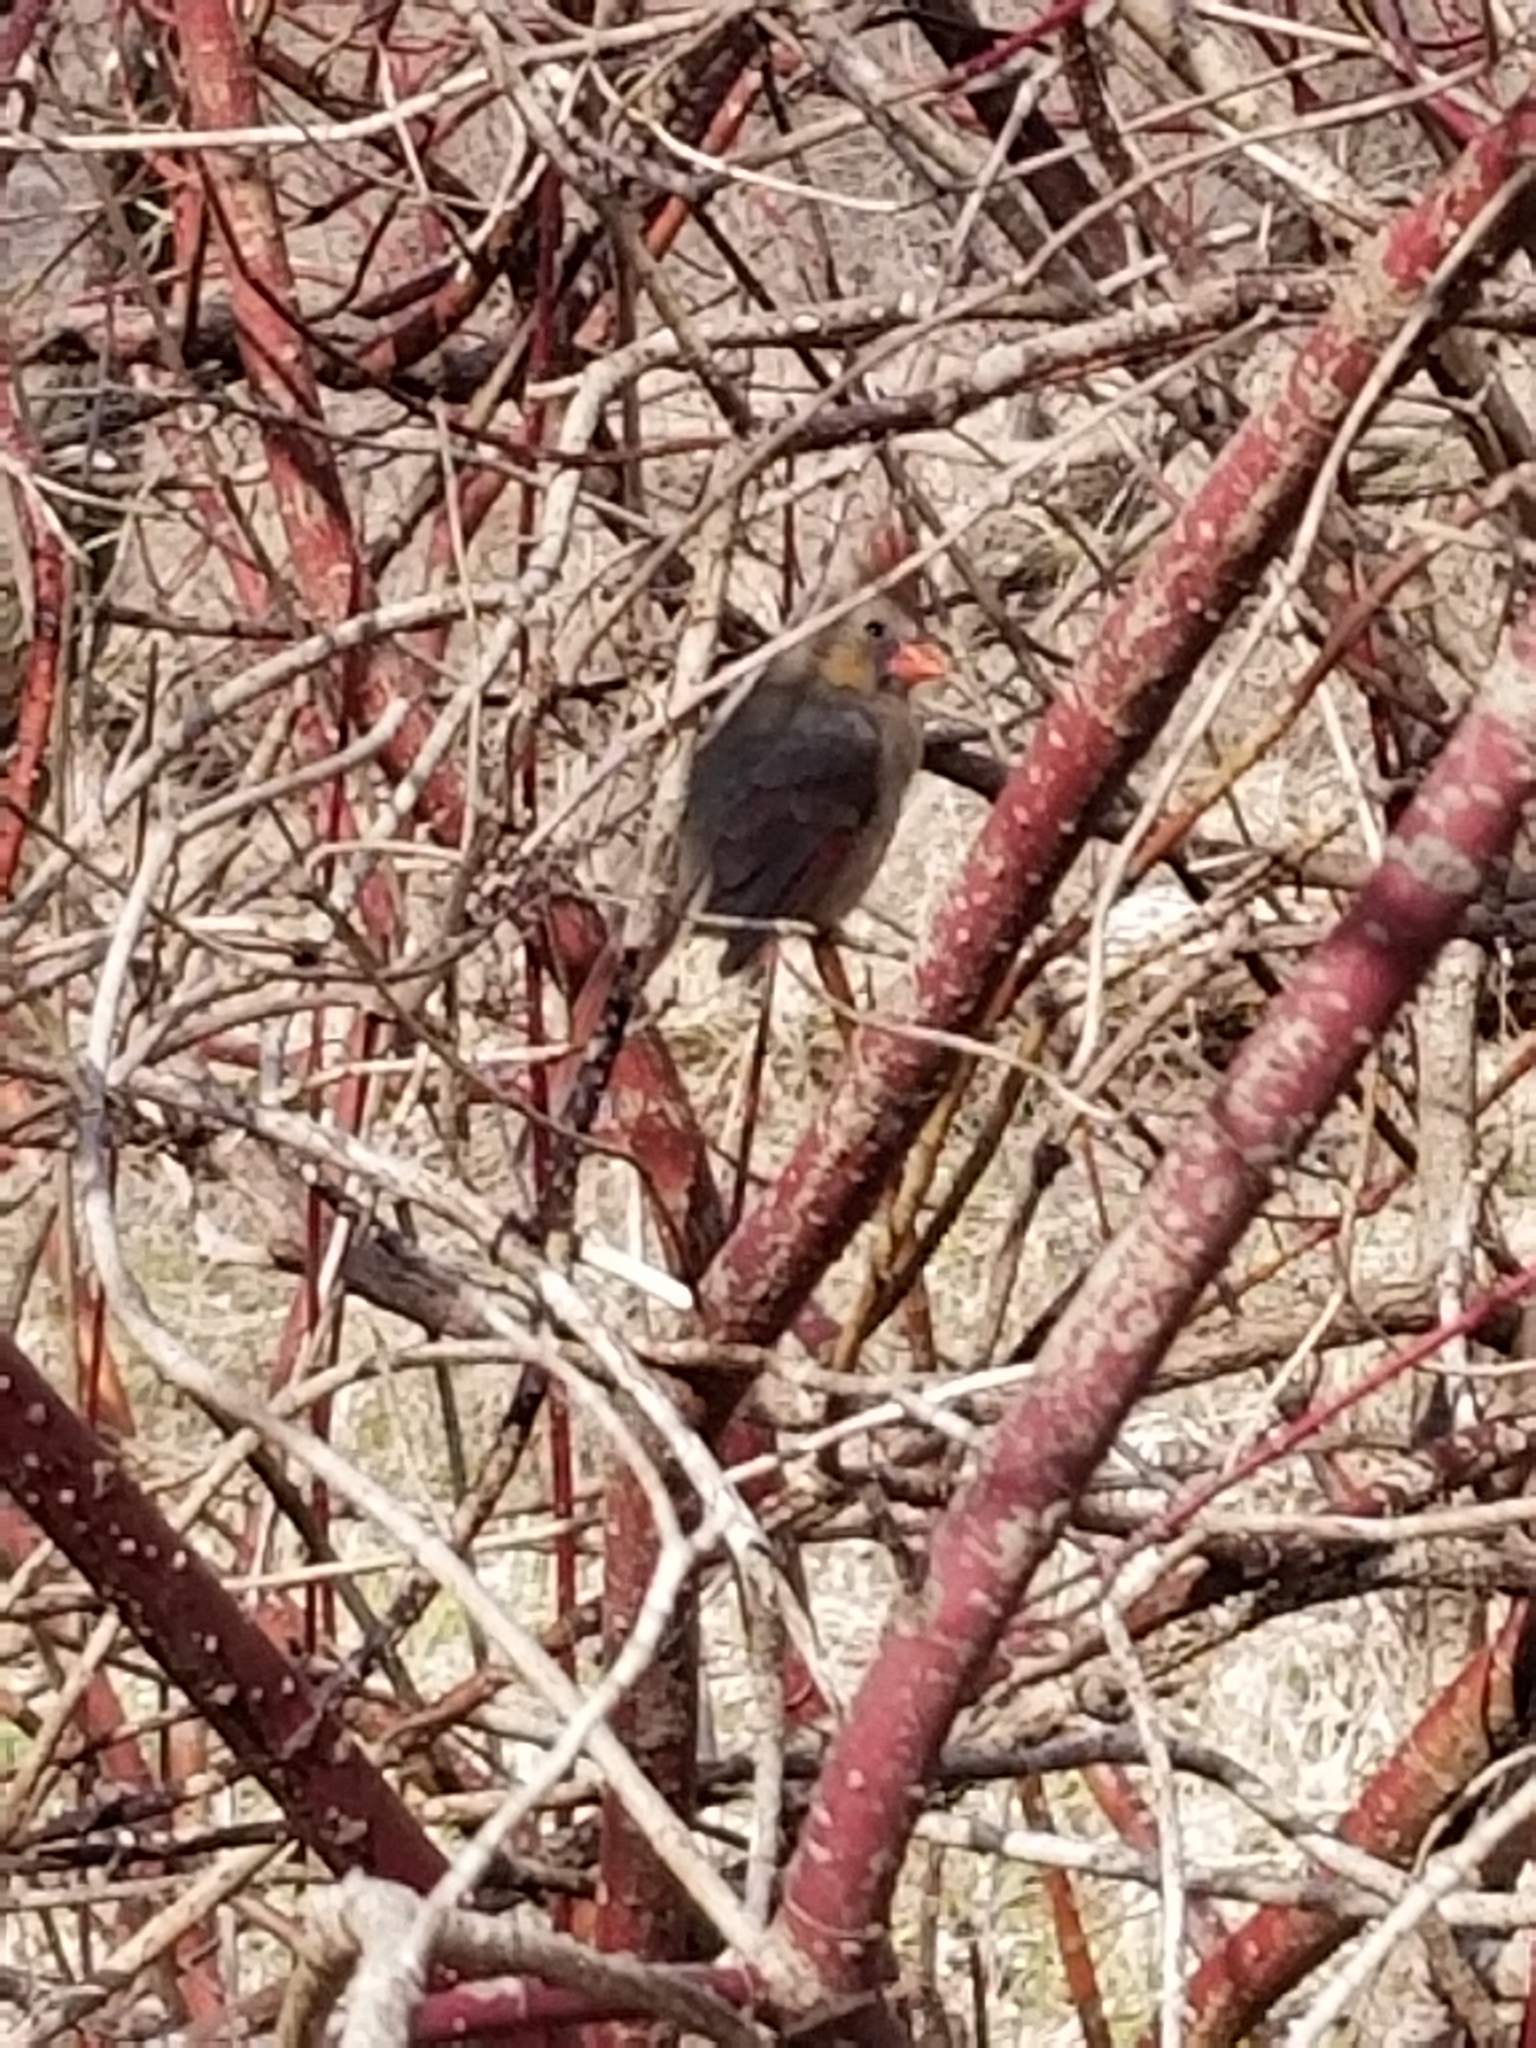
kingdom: Animalia
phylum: Chordata
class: Aves
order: Passeriformes
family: Cardinalidae
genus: Cardinalis
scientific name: Cardinalis cardinalis
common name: Northern cardinal
